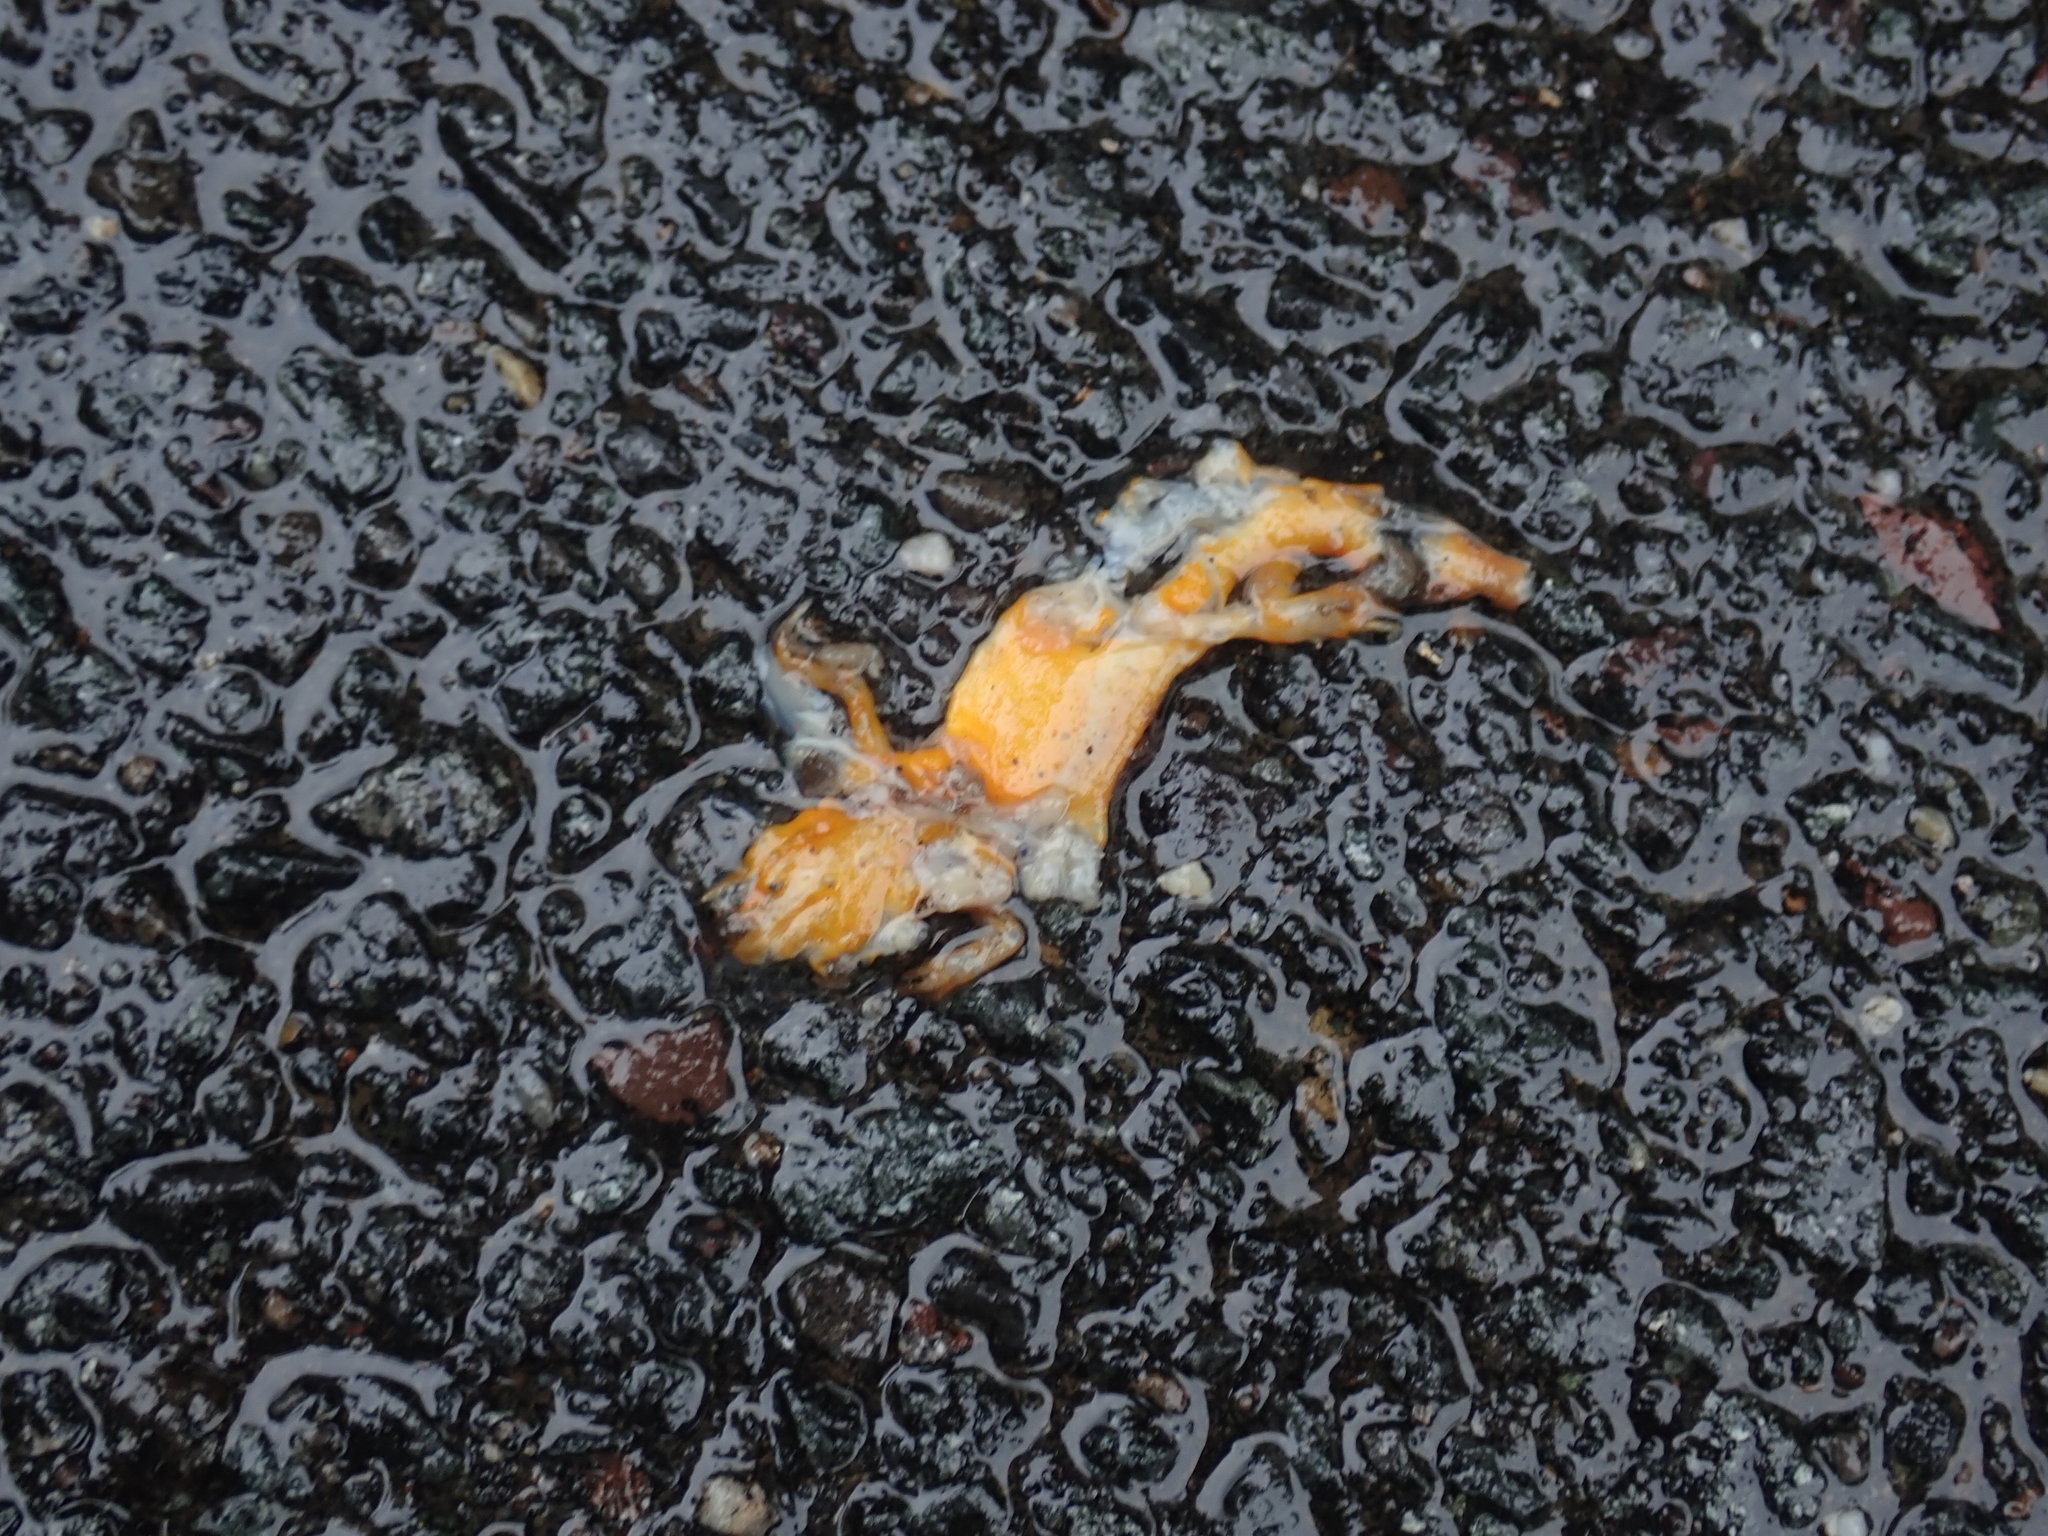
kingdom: Animalia
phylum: Chordata
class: Amphibia
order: Caudata
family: Salamandridae
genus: Notophthalmus
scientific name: Notophthalmus viridescens
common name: Eastern newt
